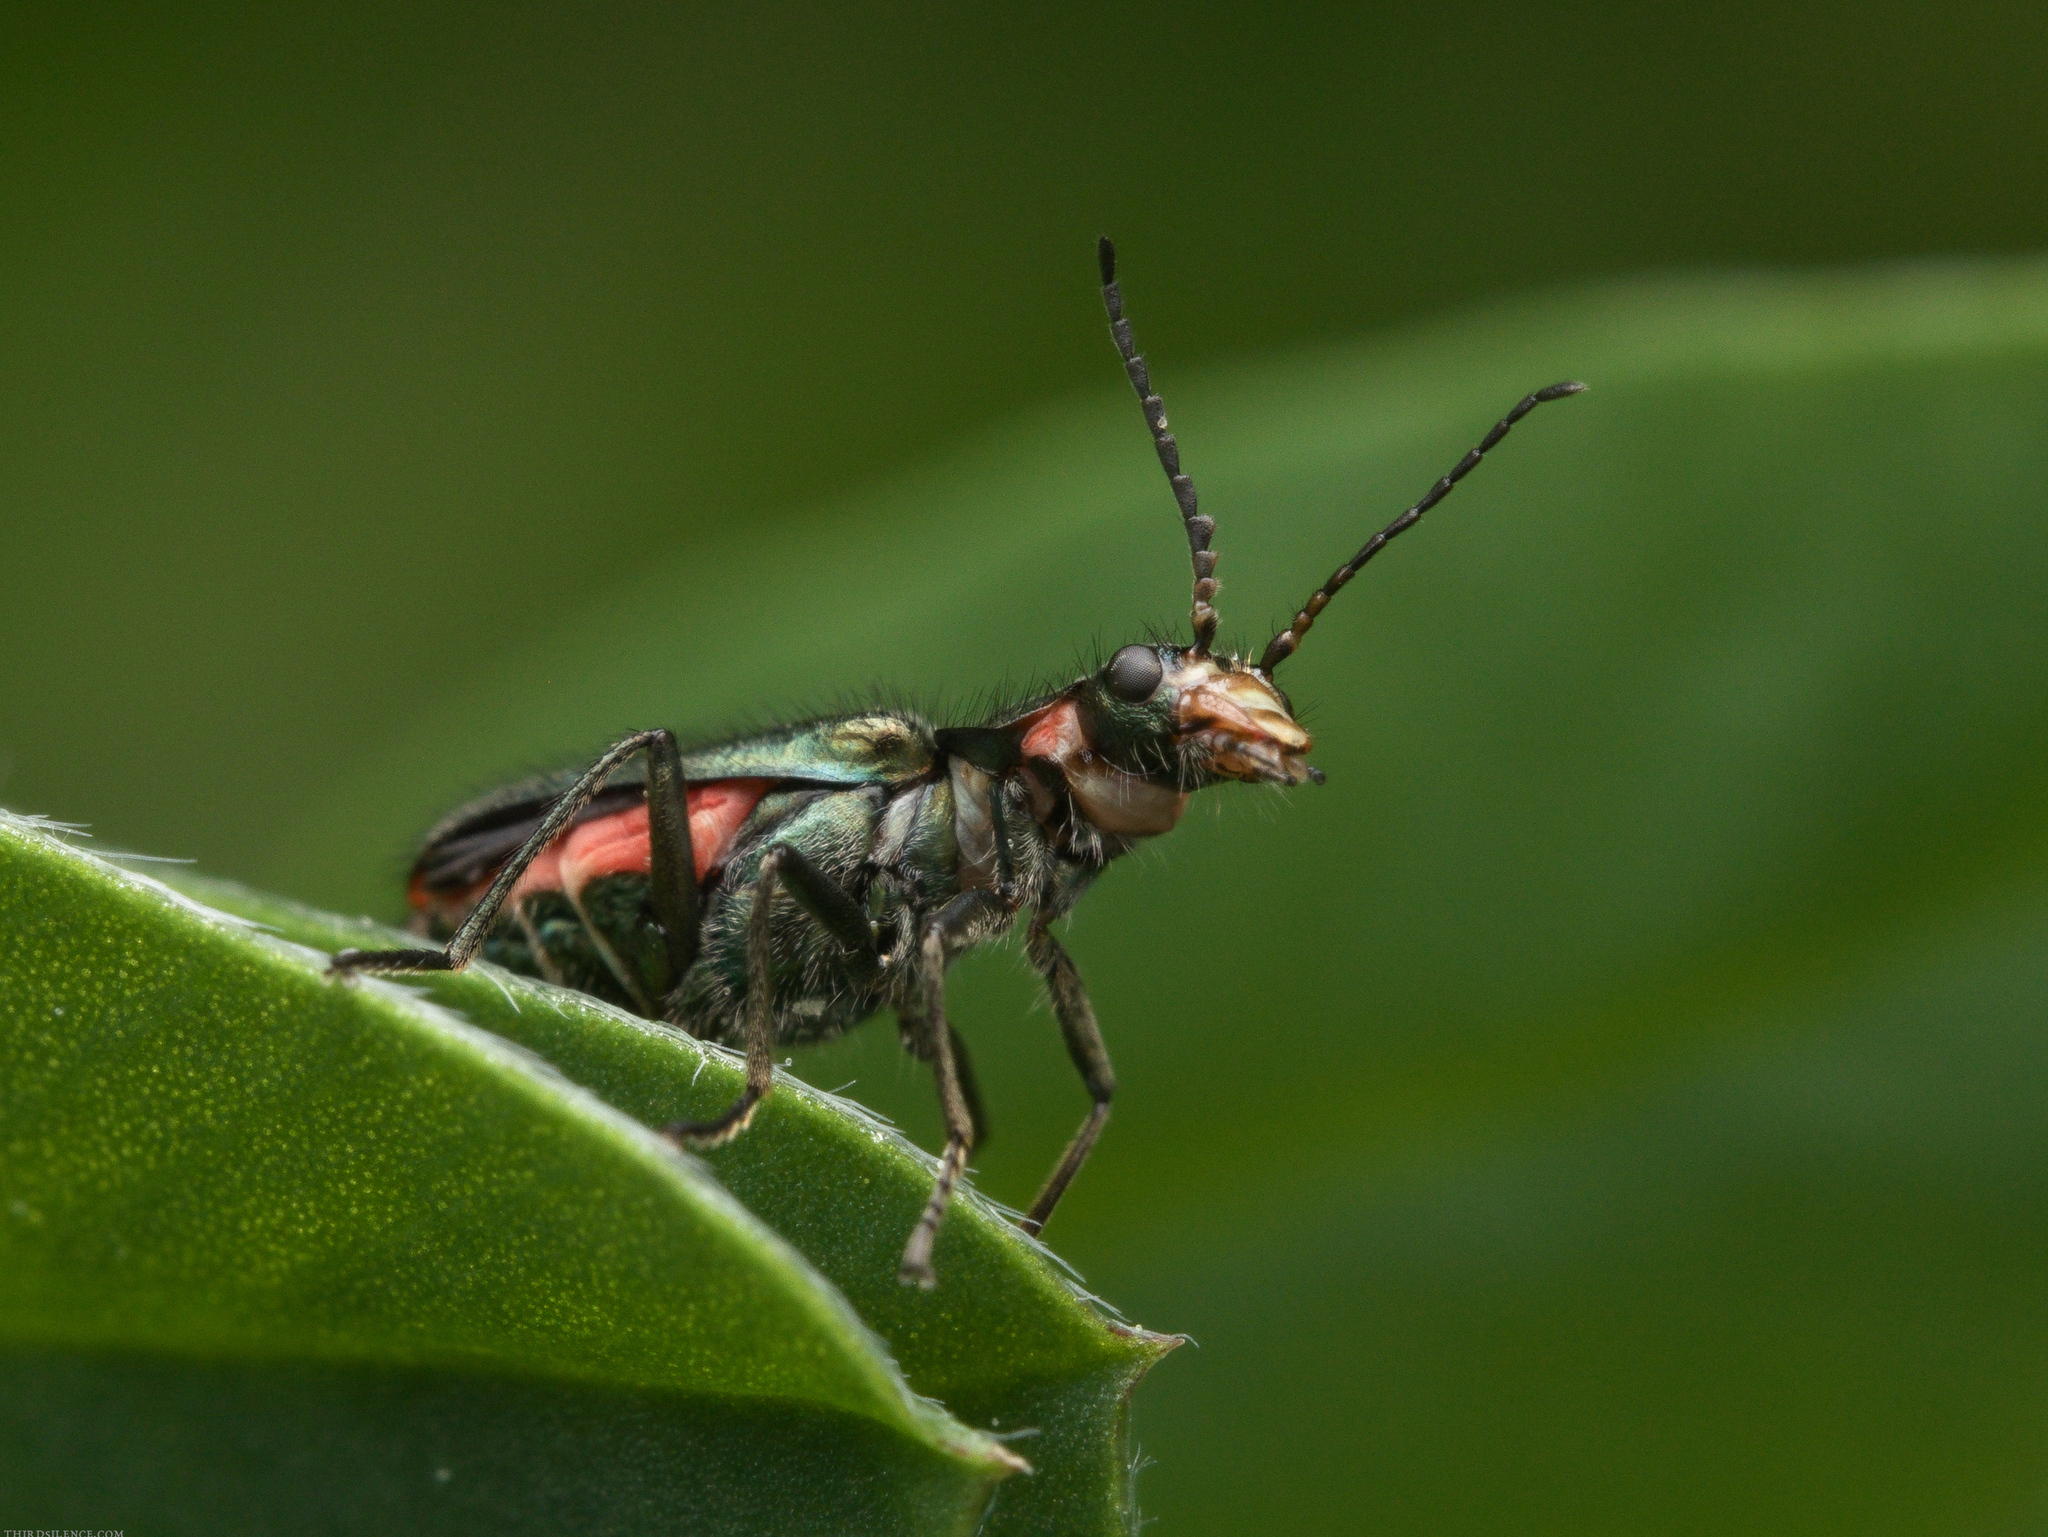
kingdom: Animalia
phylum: Arthropoda
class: Insecta
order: Coleoptera
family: Melyridae
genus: Malachius
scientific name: Malachius bipustulatus
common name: Malachite beetle
